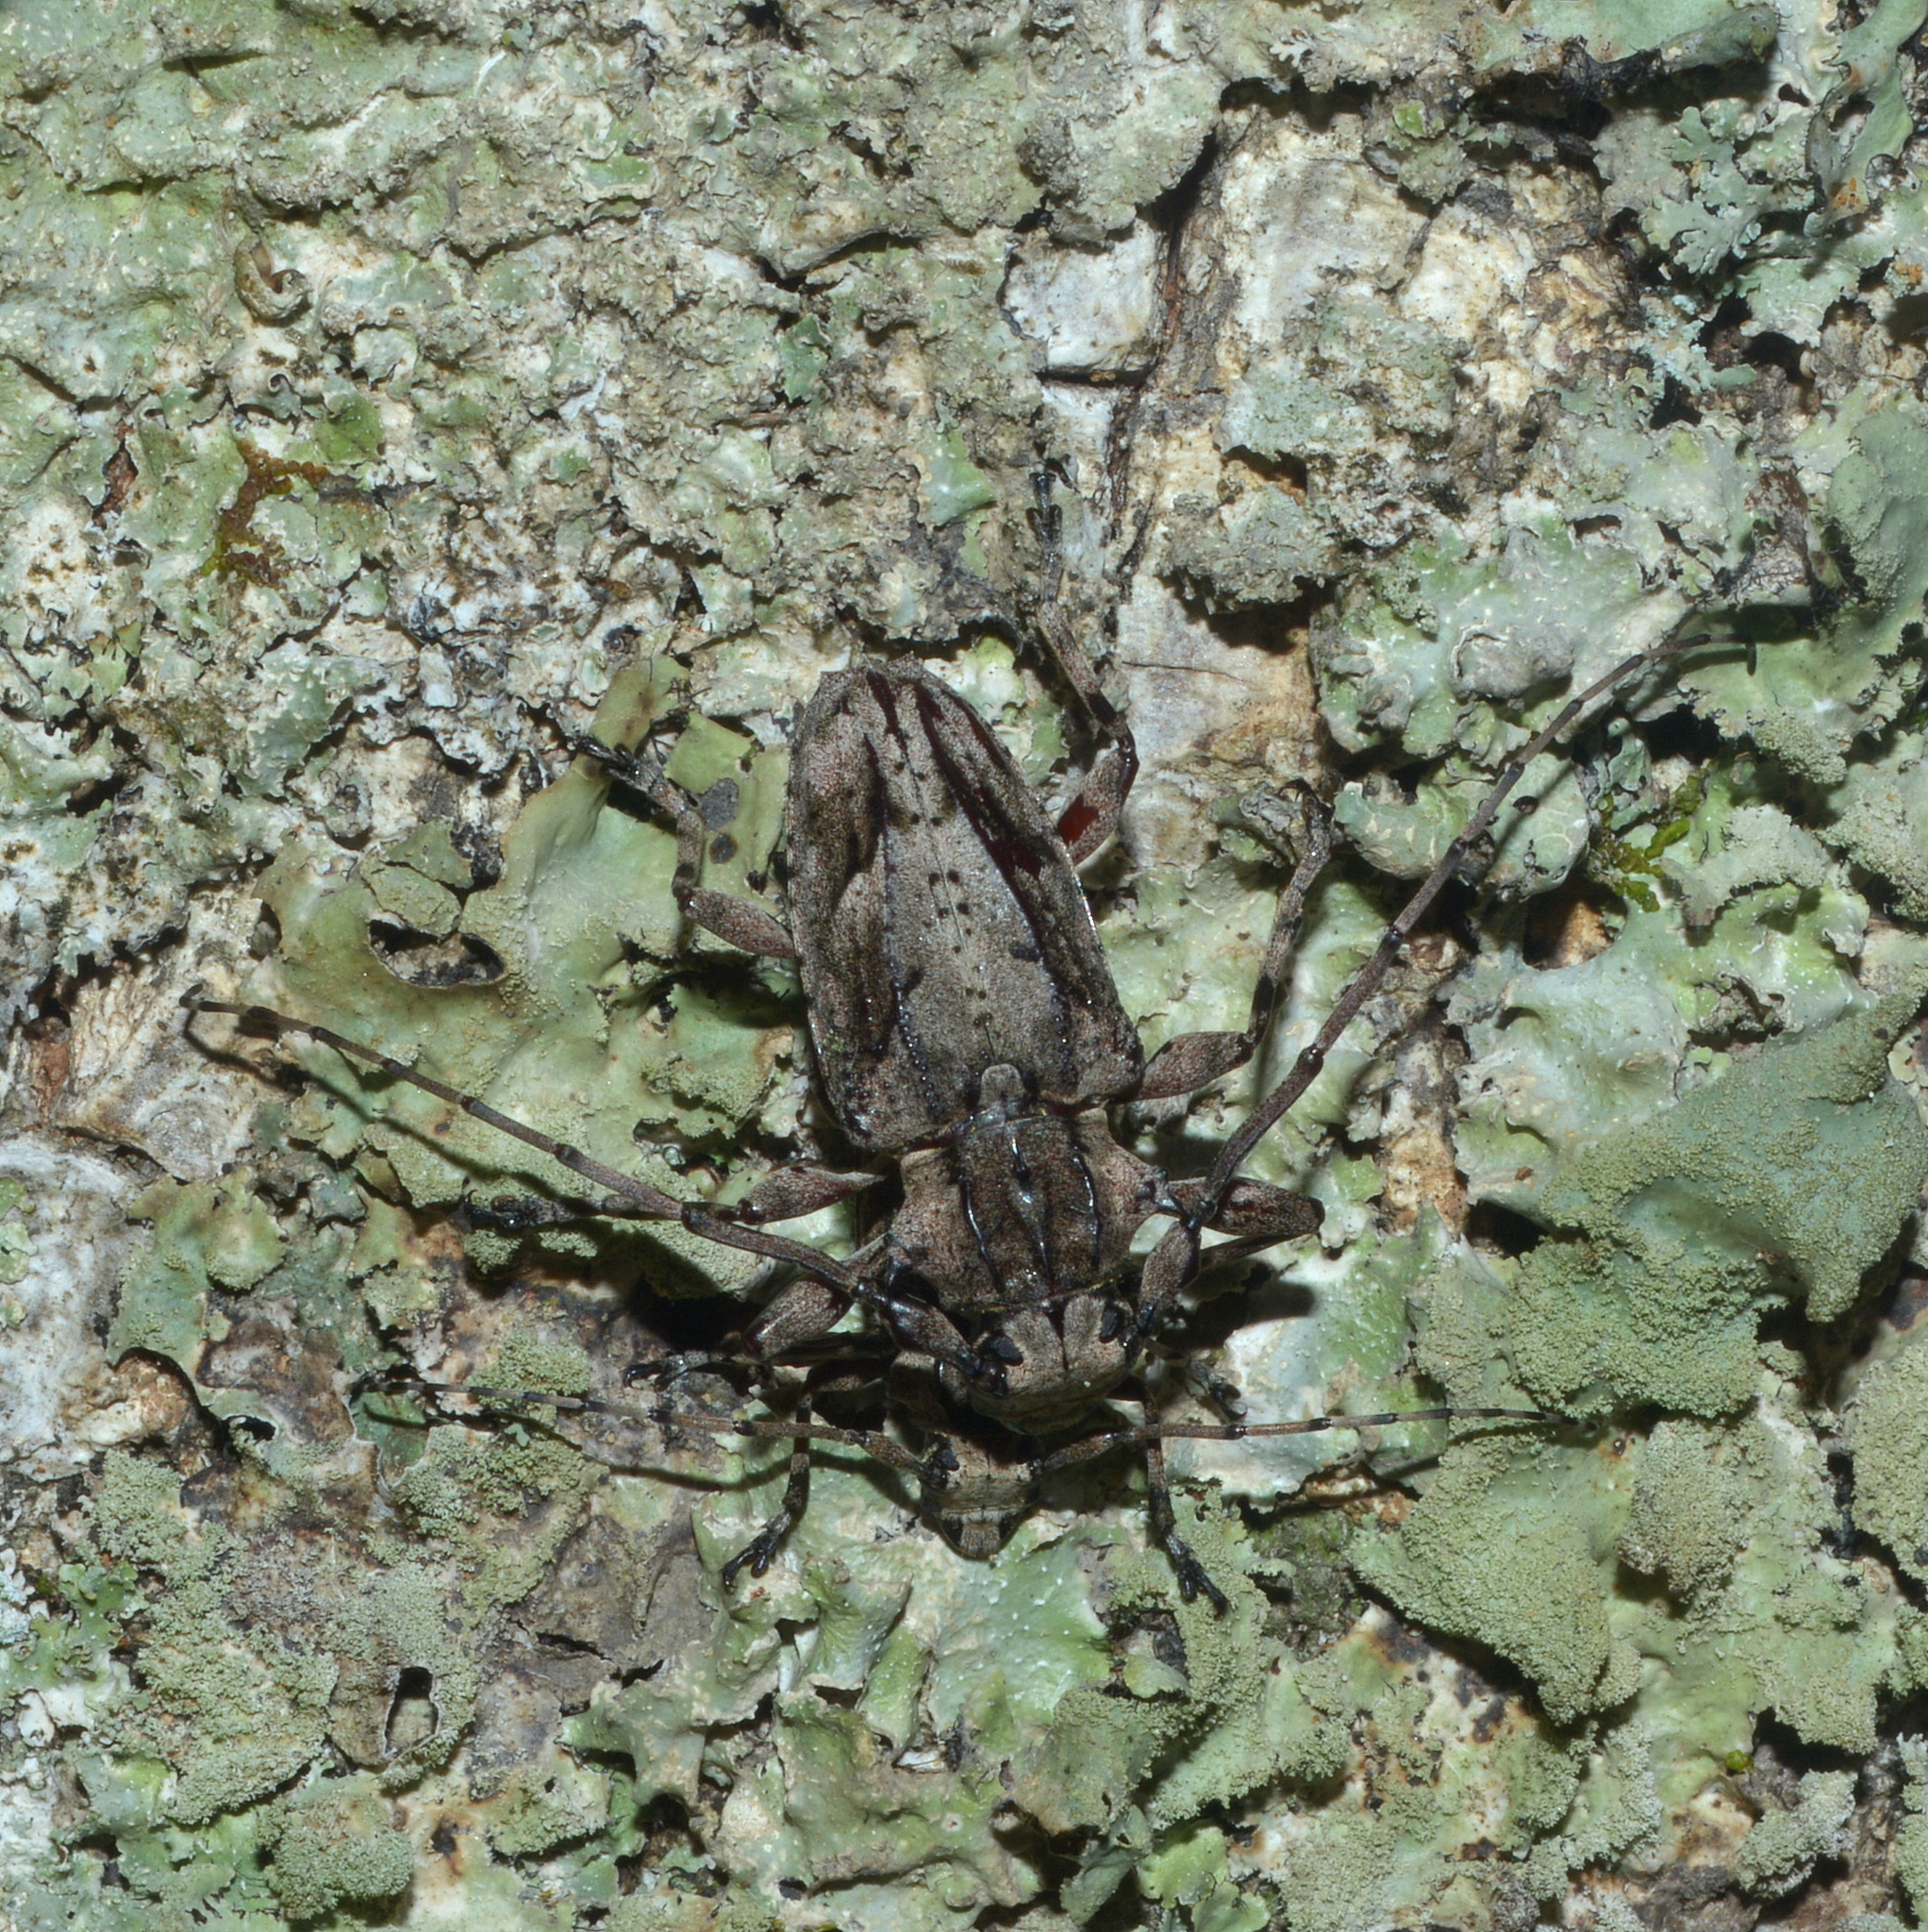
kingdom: Animalia
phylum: Arthropoda
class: Insecta
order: Coleoptera
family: Cerambycidae
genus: Steirastoma
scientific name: Steirastoma stellio
